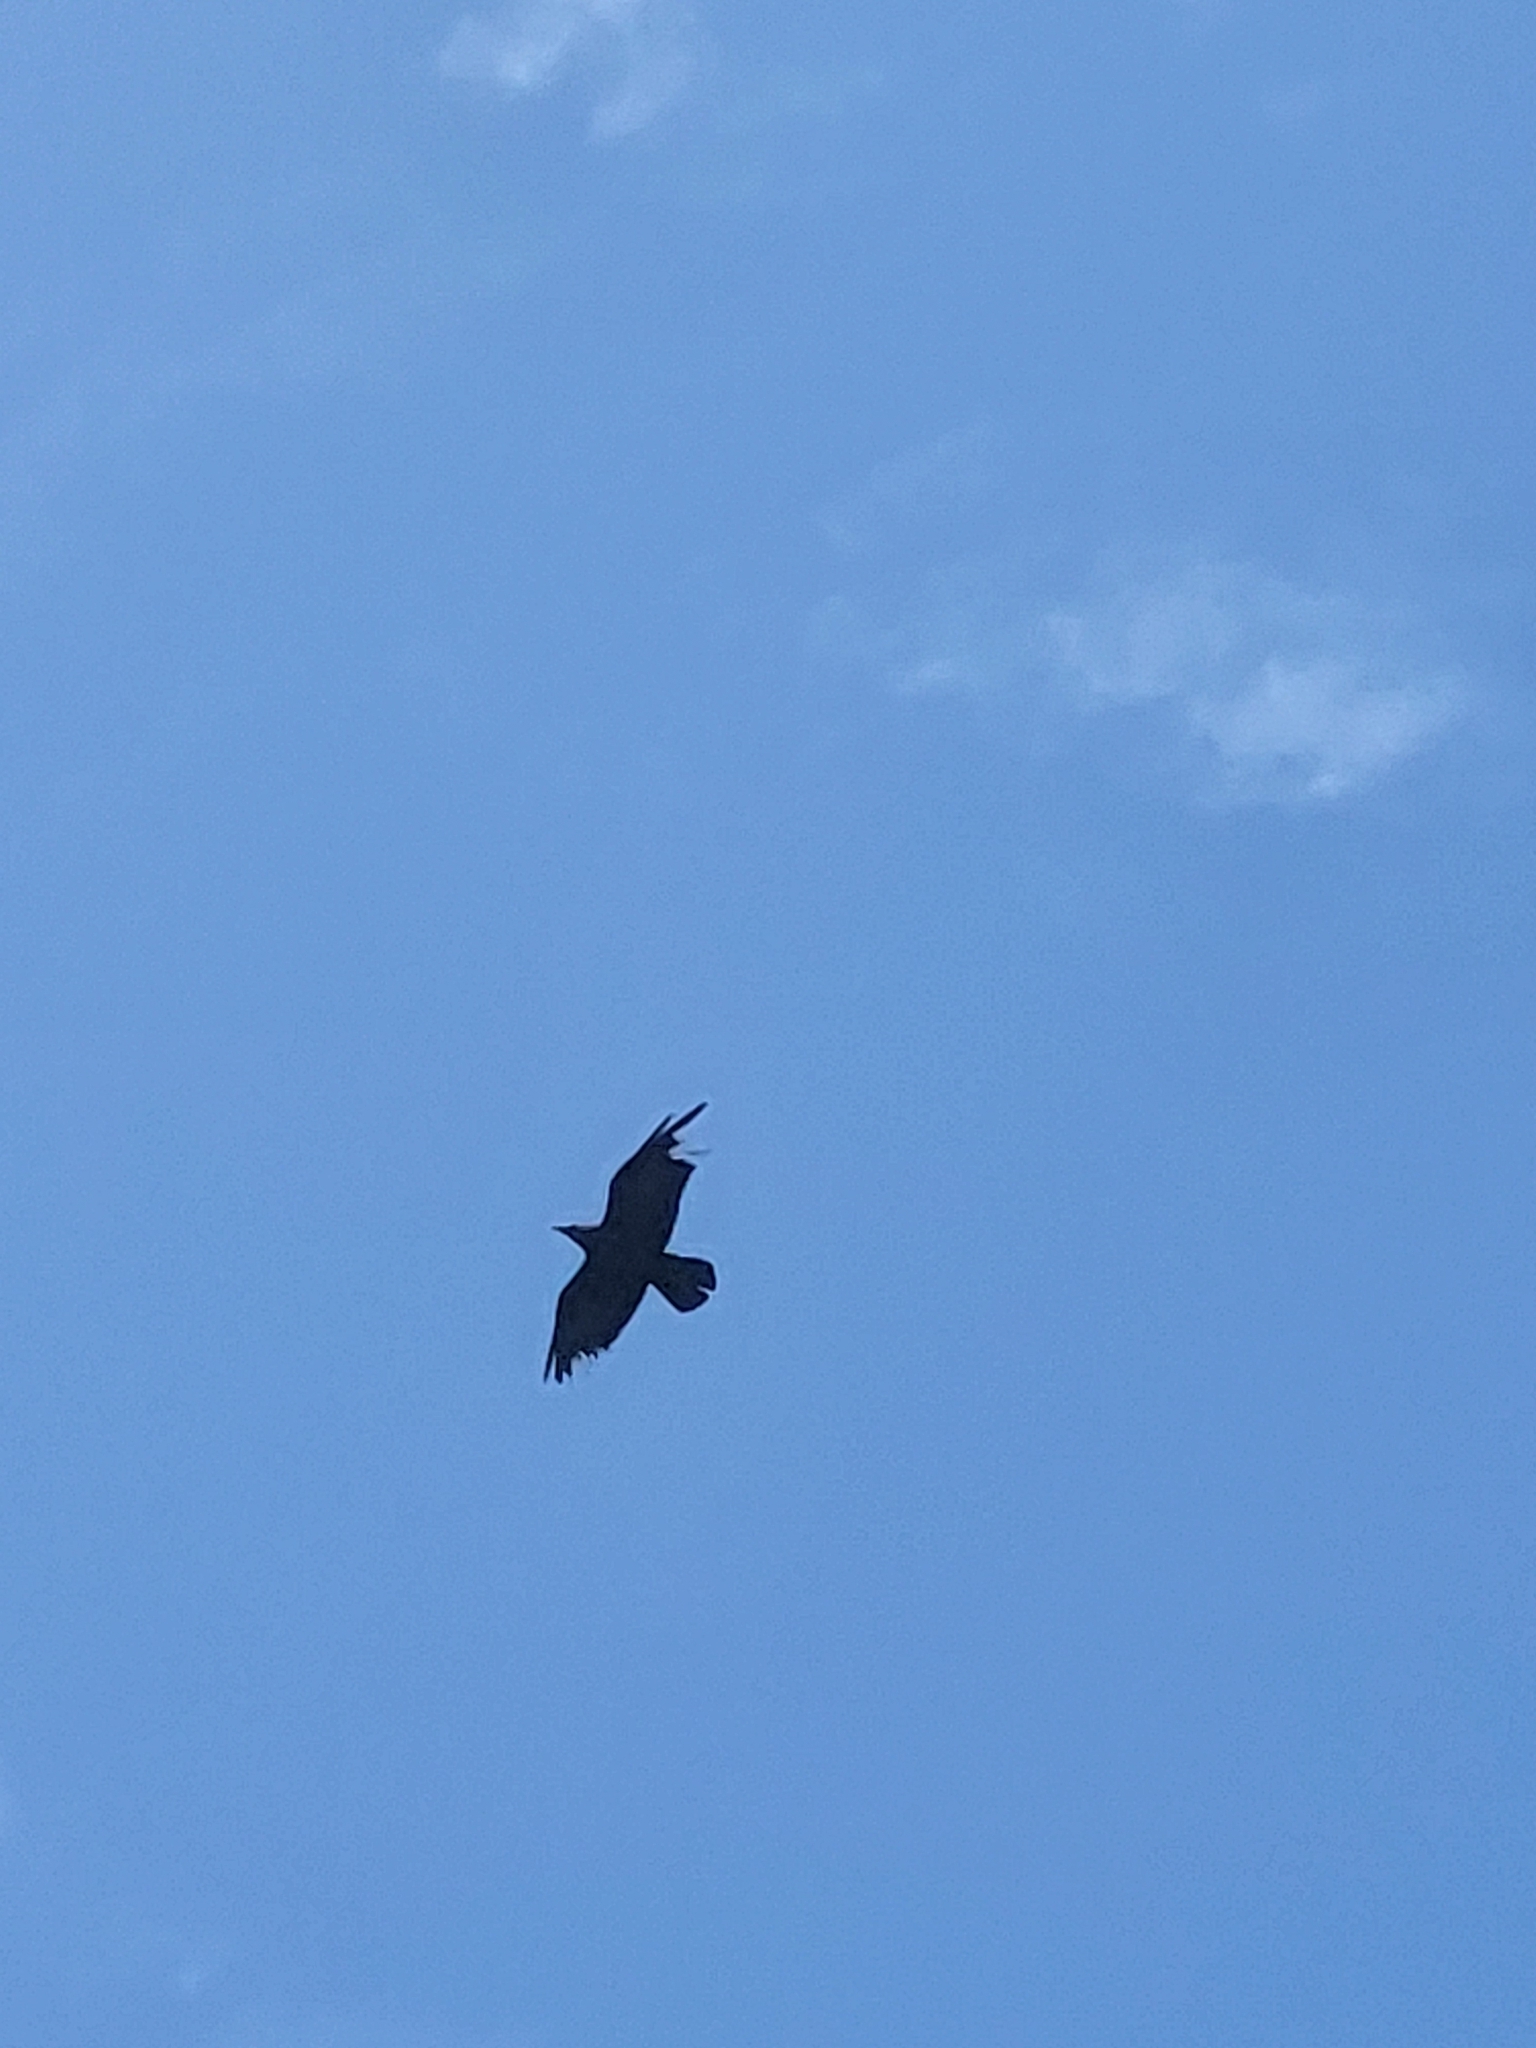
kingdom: Animalia
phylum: Chordata
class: Aves
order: Passeriformes
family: Corvidae
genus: Corvus
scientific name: Corvus ruficollis
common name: Brown-necked raven
